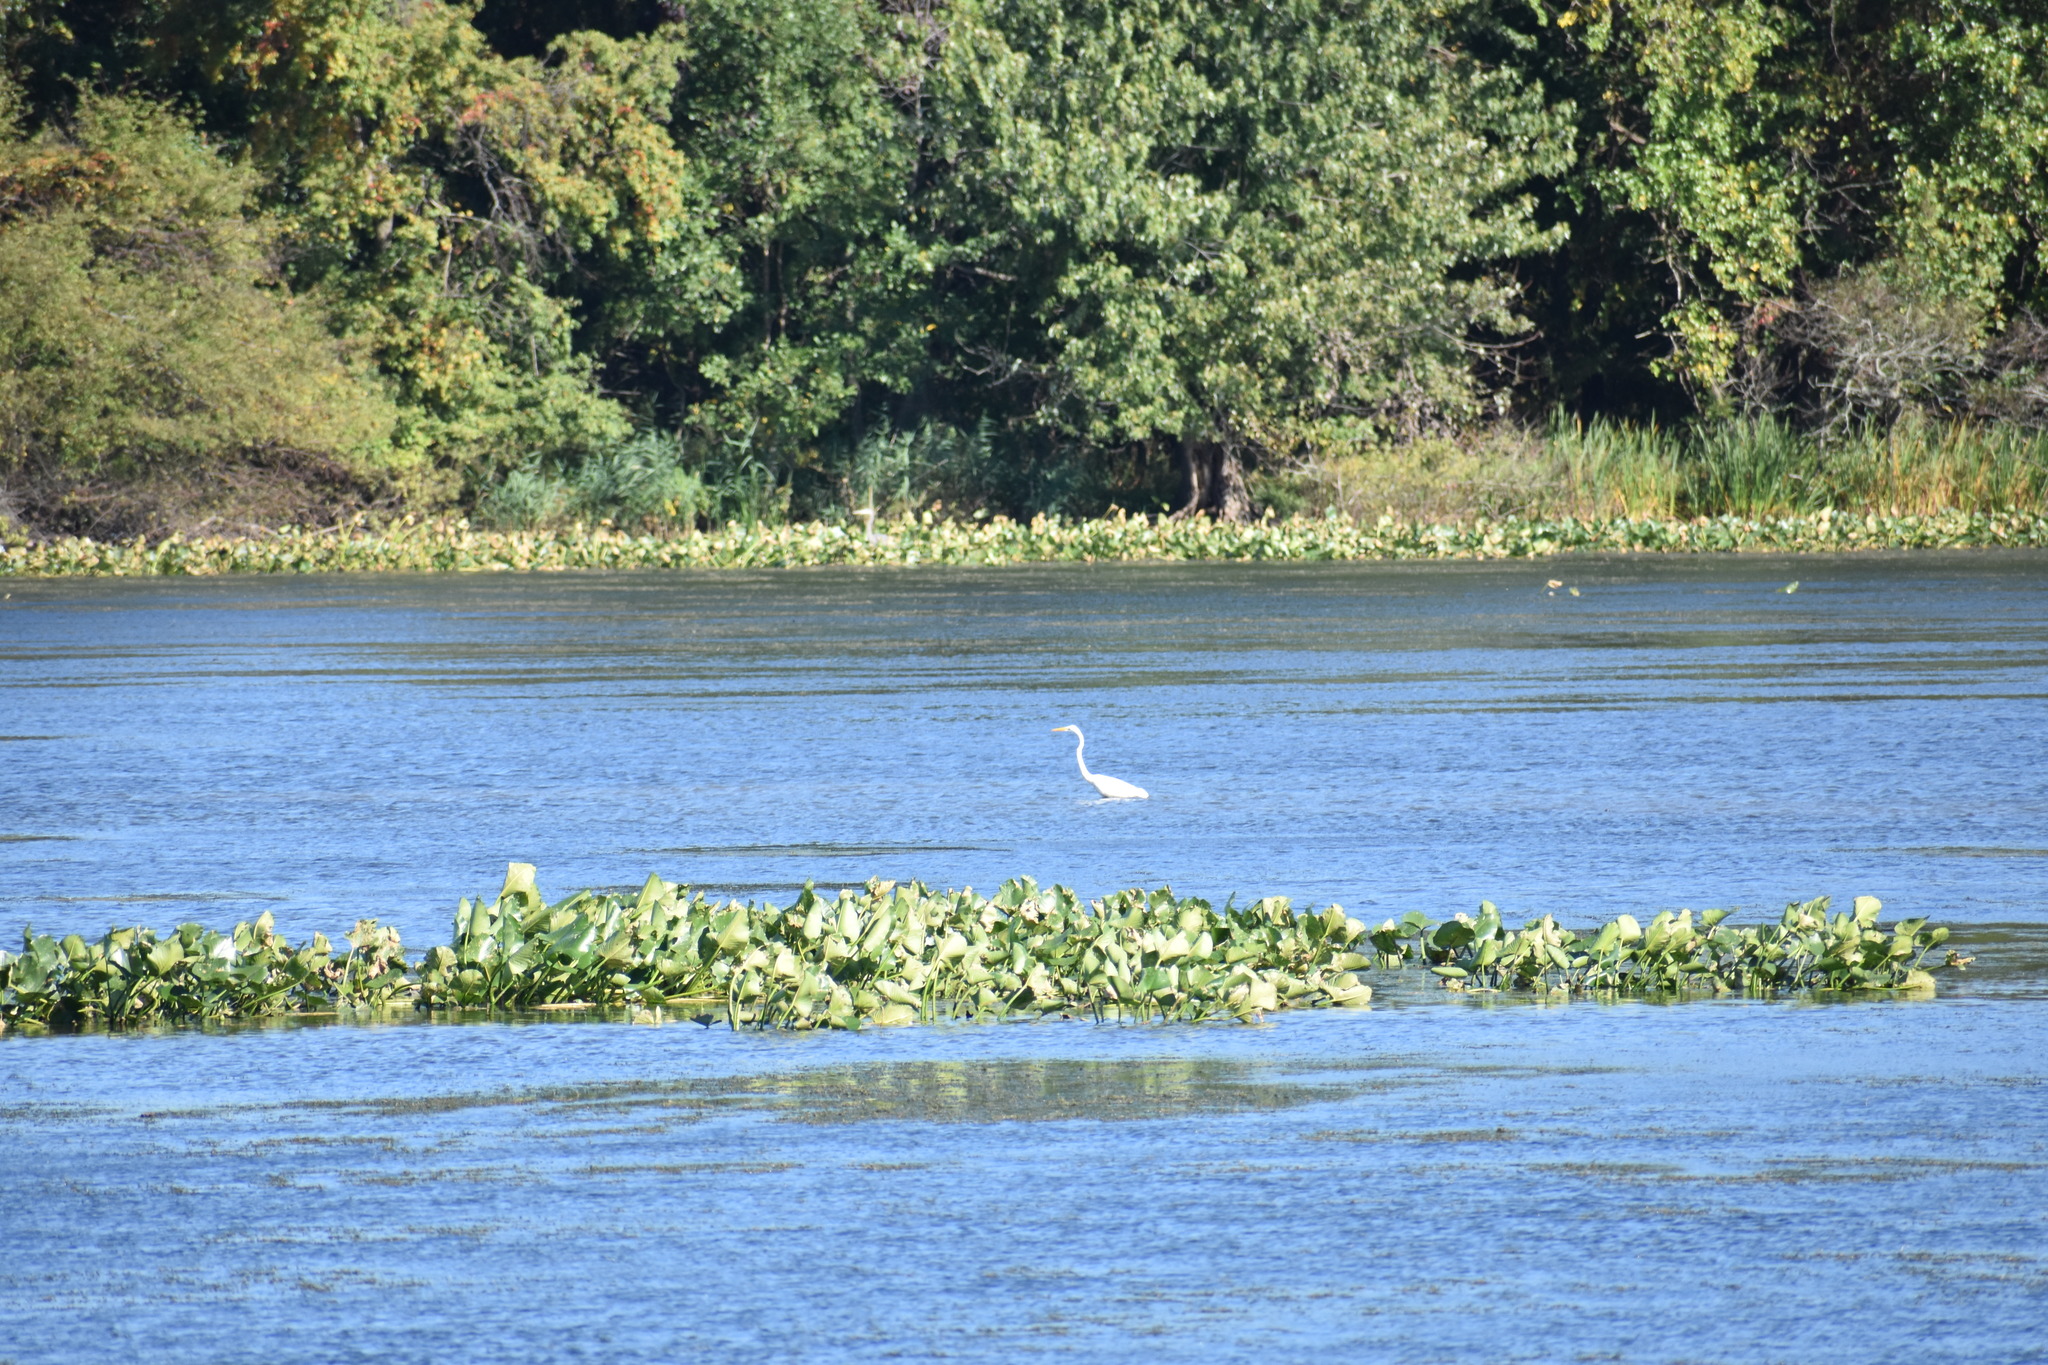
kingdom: Animalia
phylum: Chordata
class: Aves
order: Pelecaniformes
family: Ardeidae
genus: Ardea
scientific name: Ardea alba
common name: Great egret
